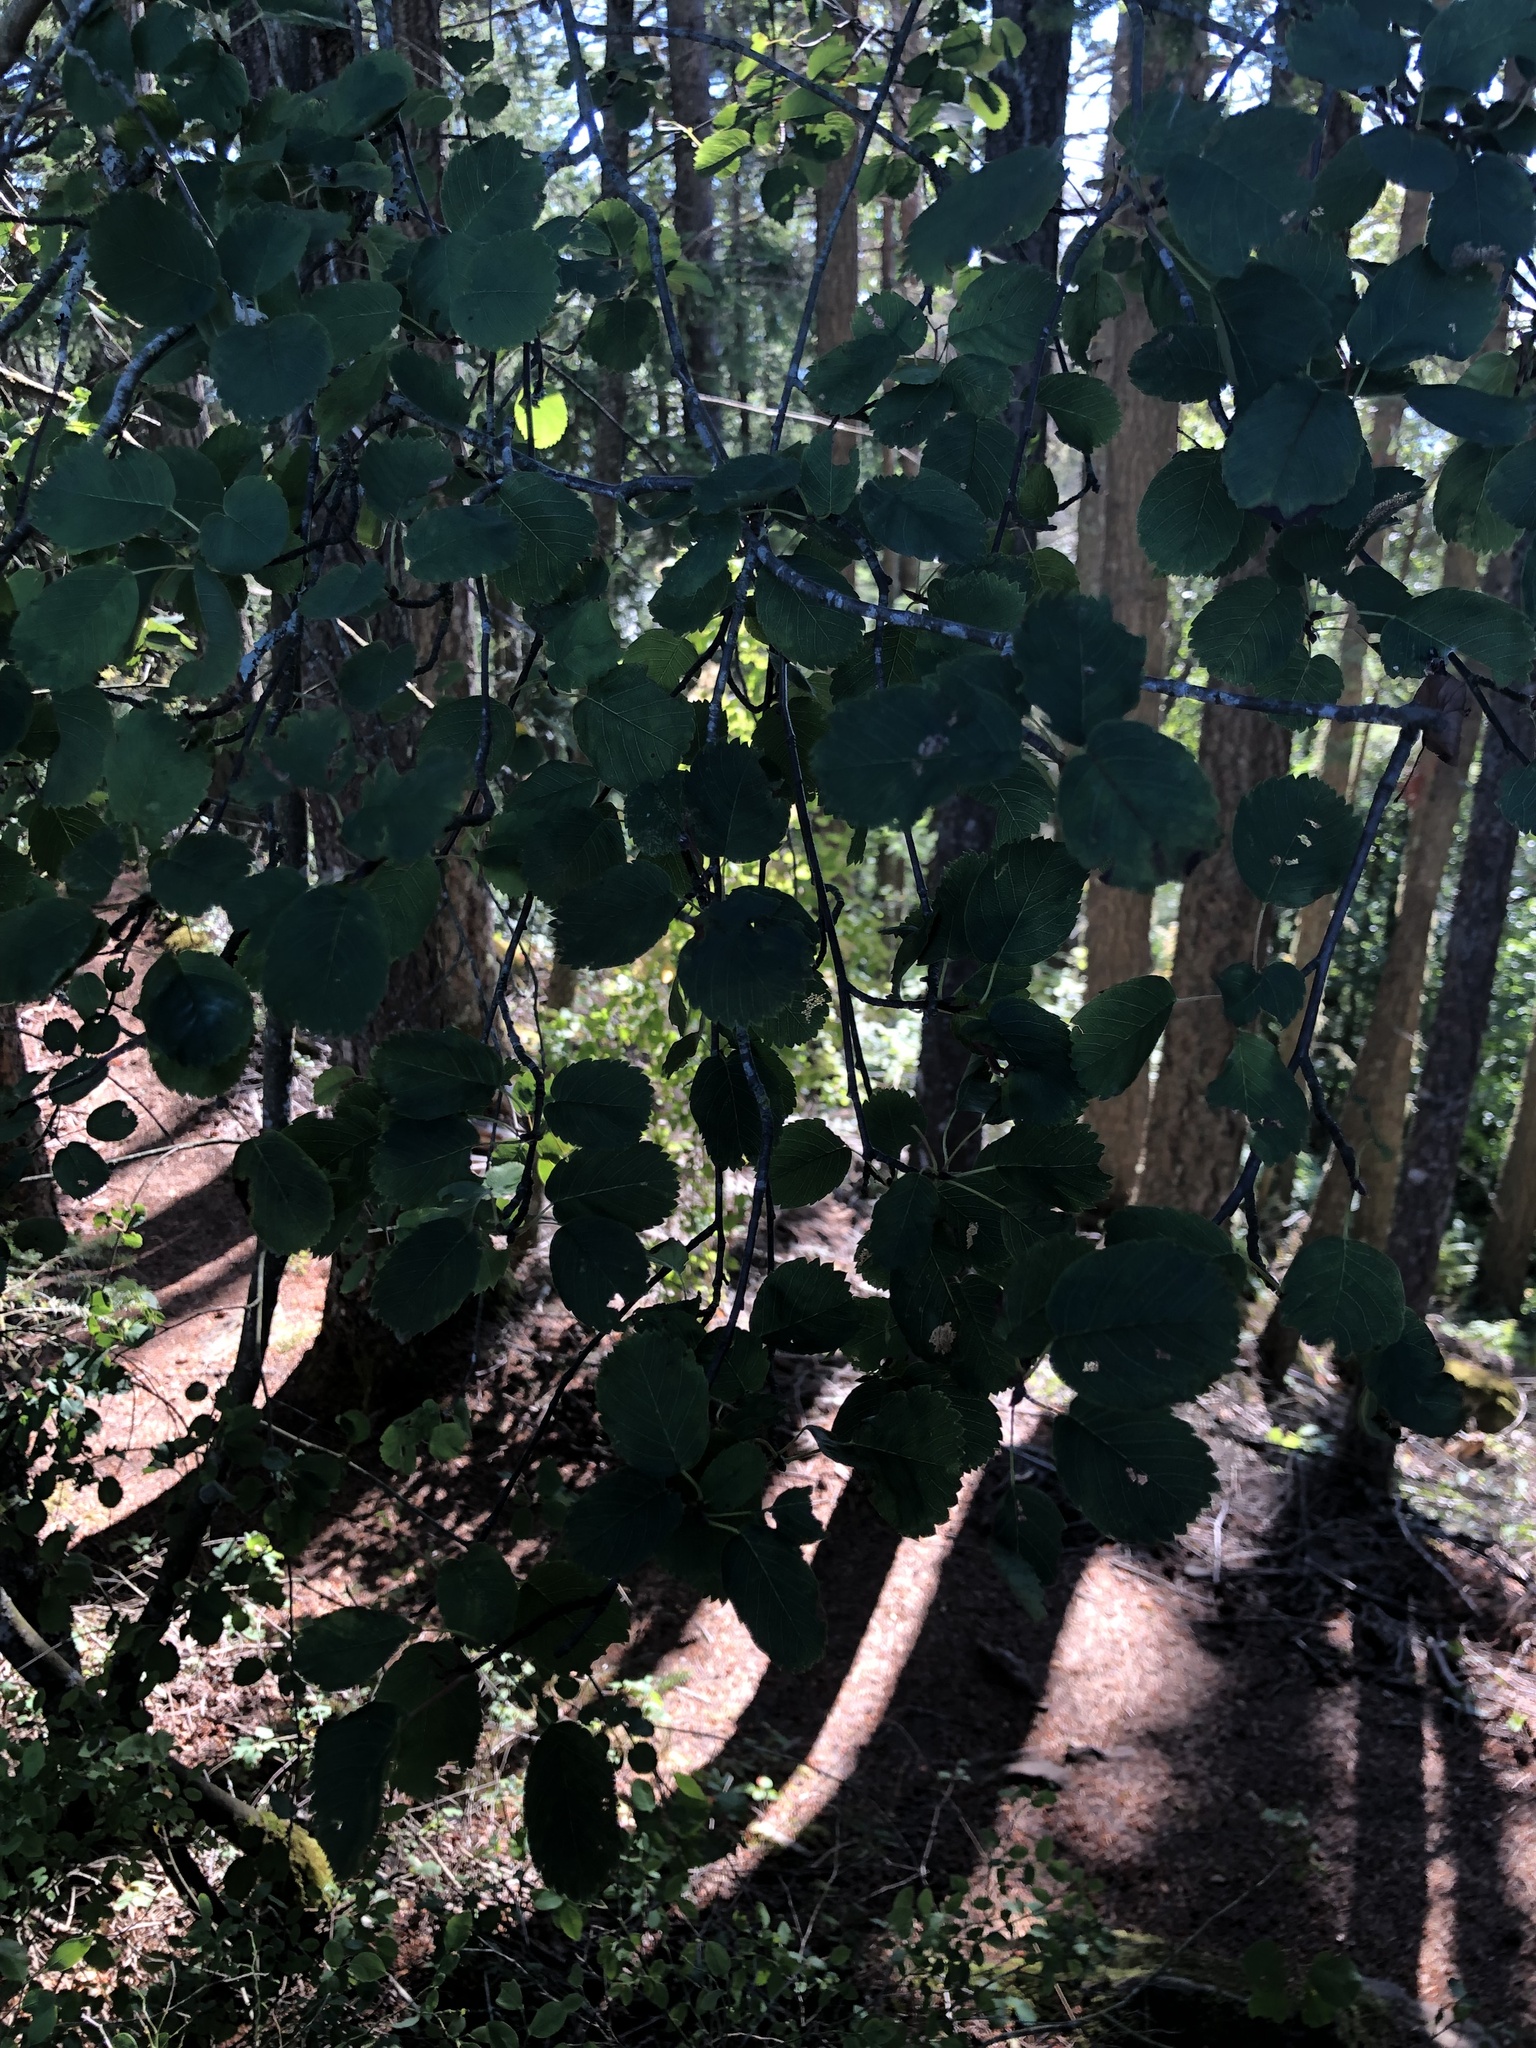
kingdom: Plantae
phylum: Tracheophyta
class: Magnoliopsida
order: Rosales
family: Rosaceae
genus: Amelanchier
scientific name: Amelanchier alnifolia
